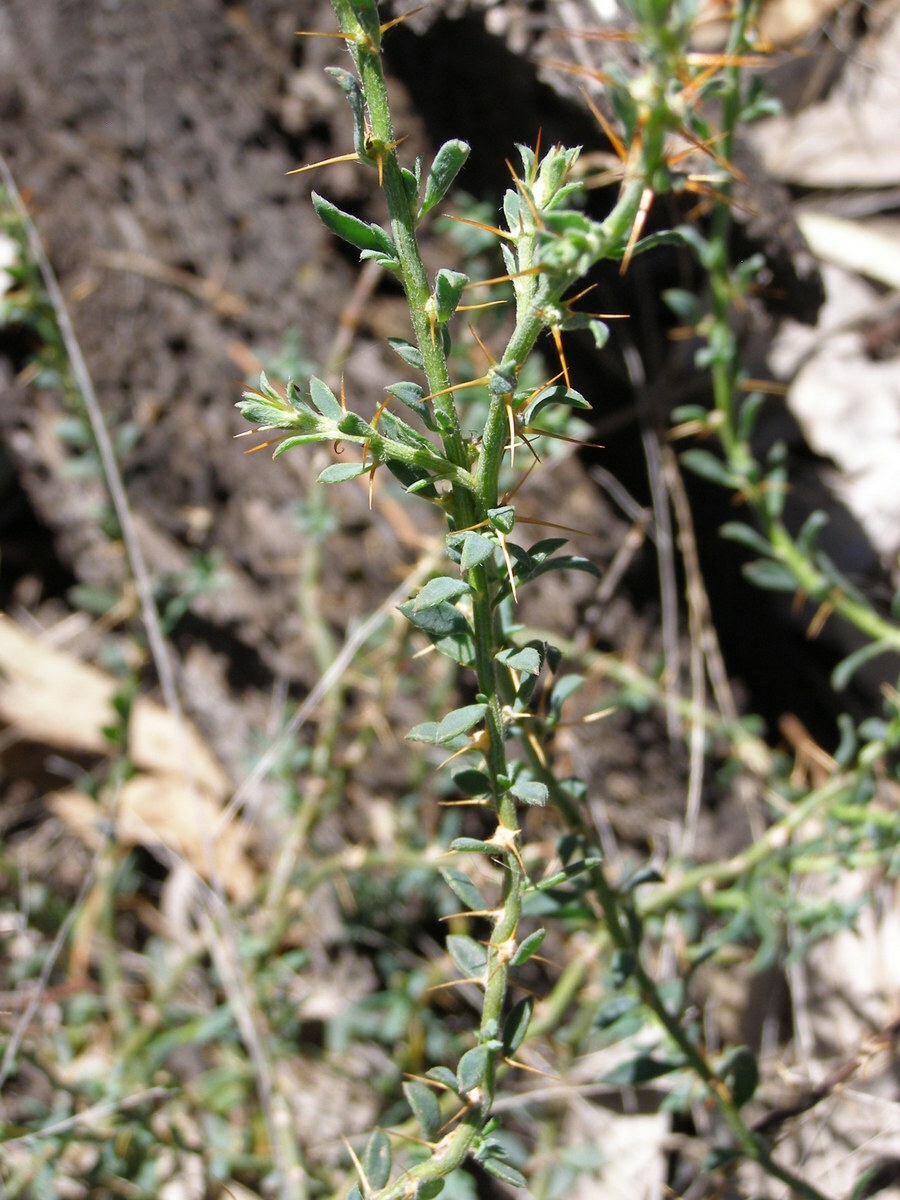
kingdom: Plantae
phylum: Tracheophyta
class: Magnoliopsida
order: Caryophyllales
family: Amaranthaceae
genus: Sclerolaena
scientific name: Sclerolaena muricata
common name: Roly-poly
